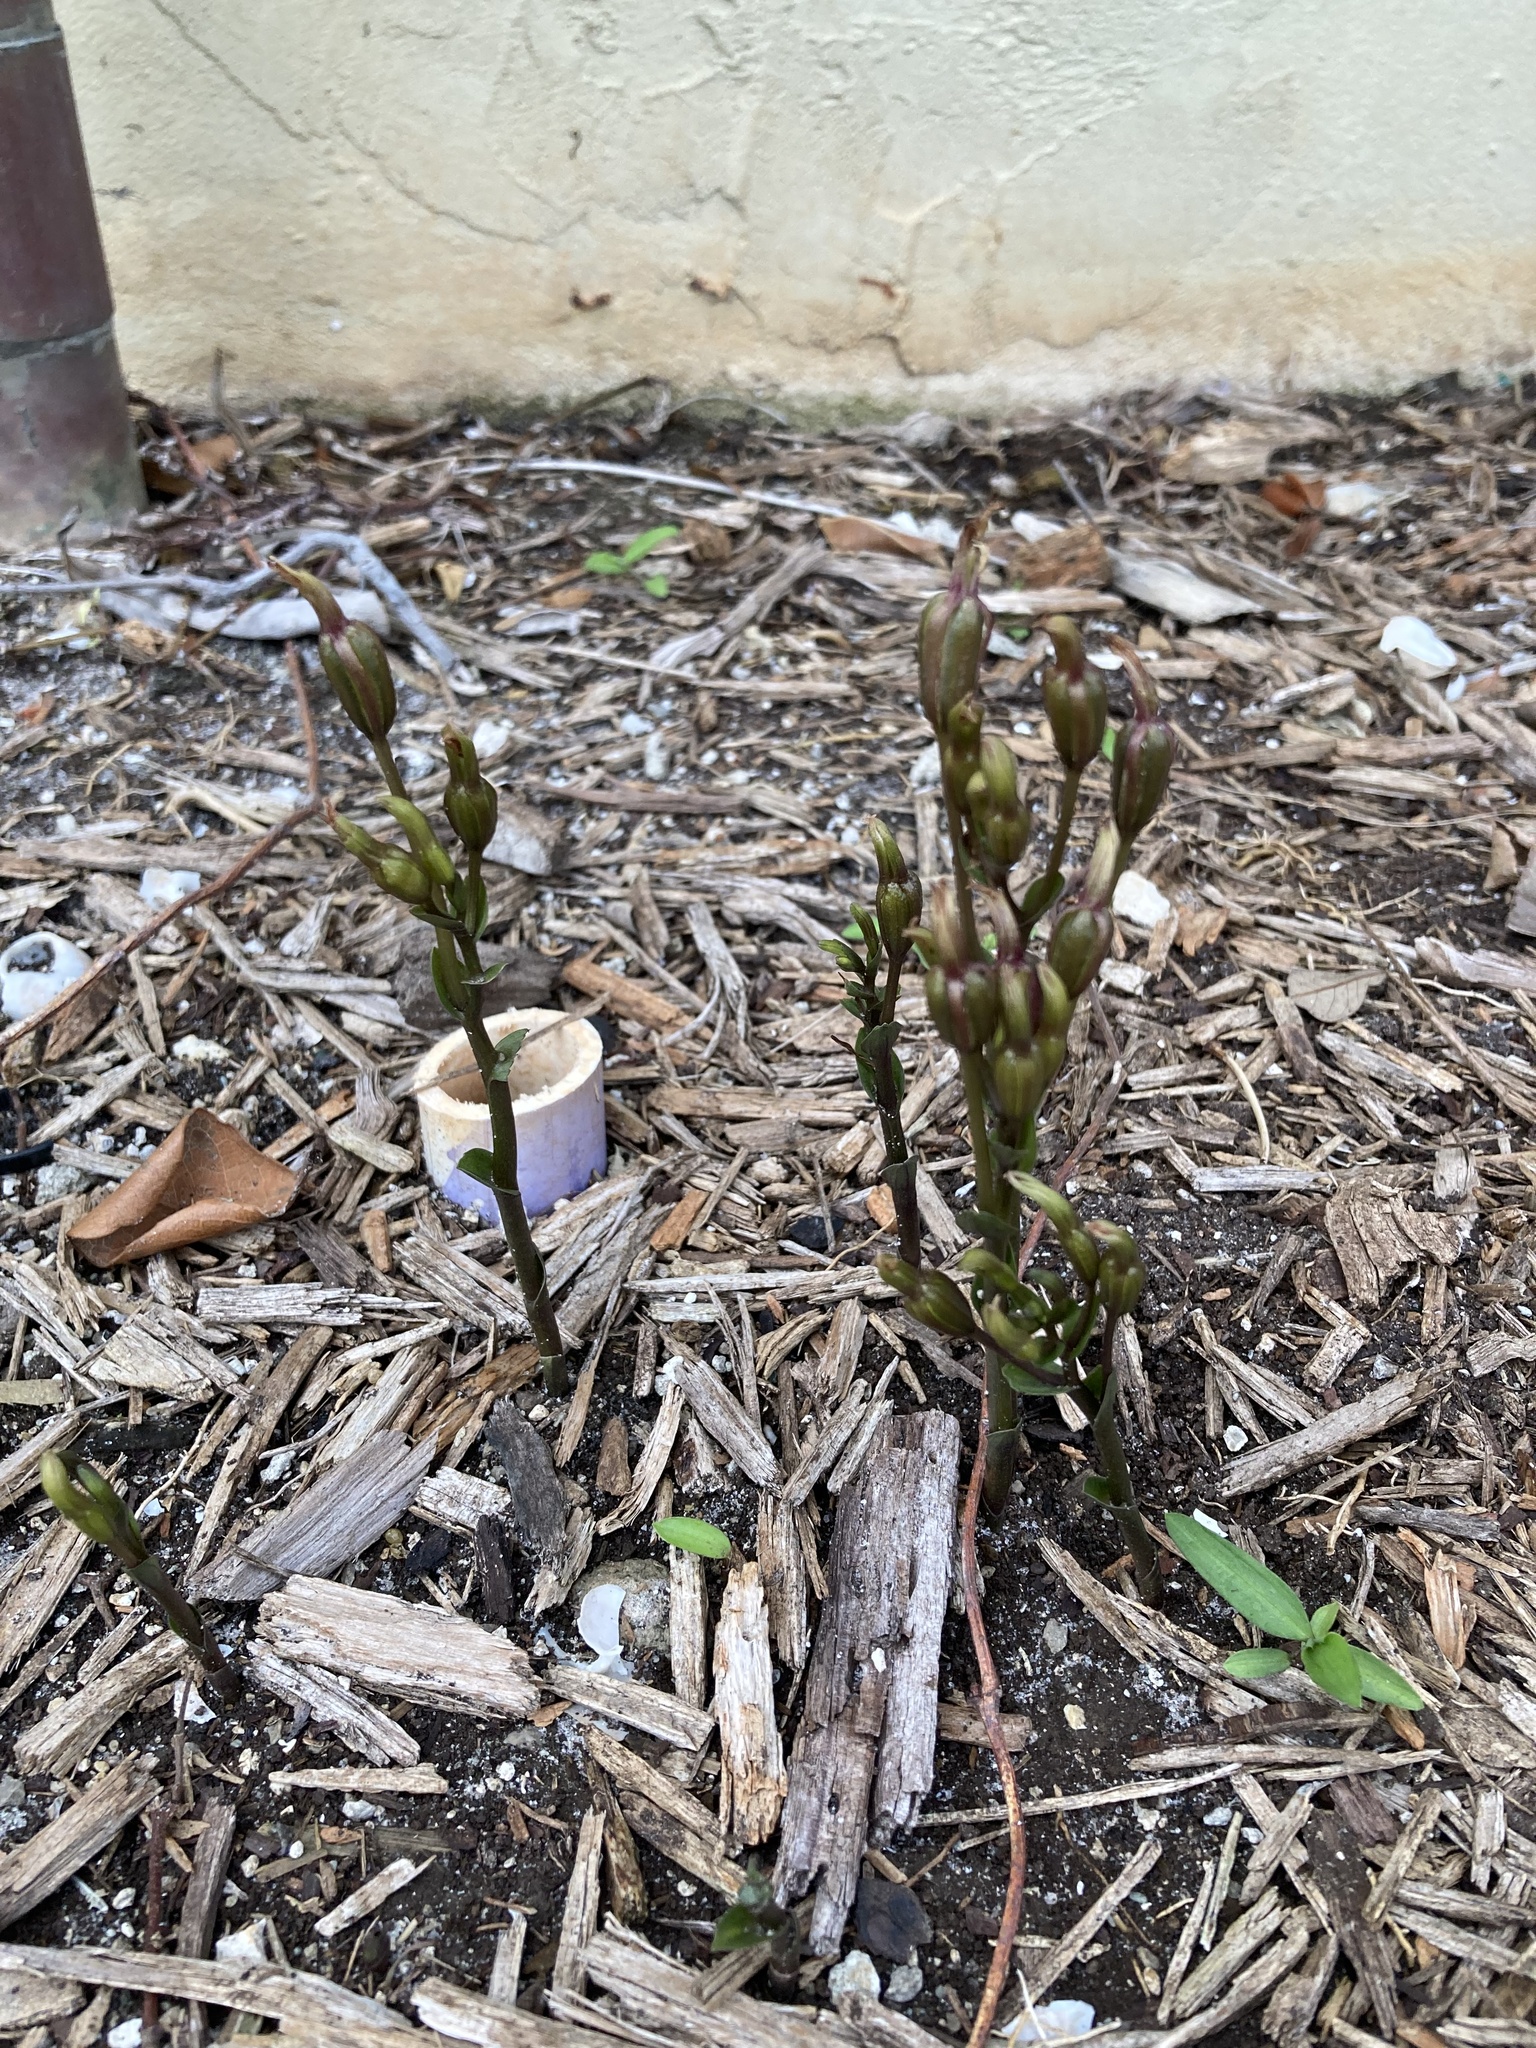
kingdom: Plantae
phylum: Tracheophyta
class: Liliopsida
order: Asparagales
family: Orchidaceae
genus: Triphora
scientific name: Triphora gentianoides
